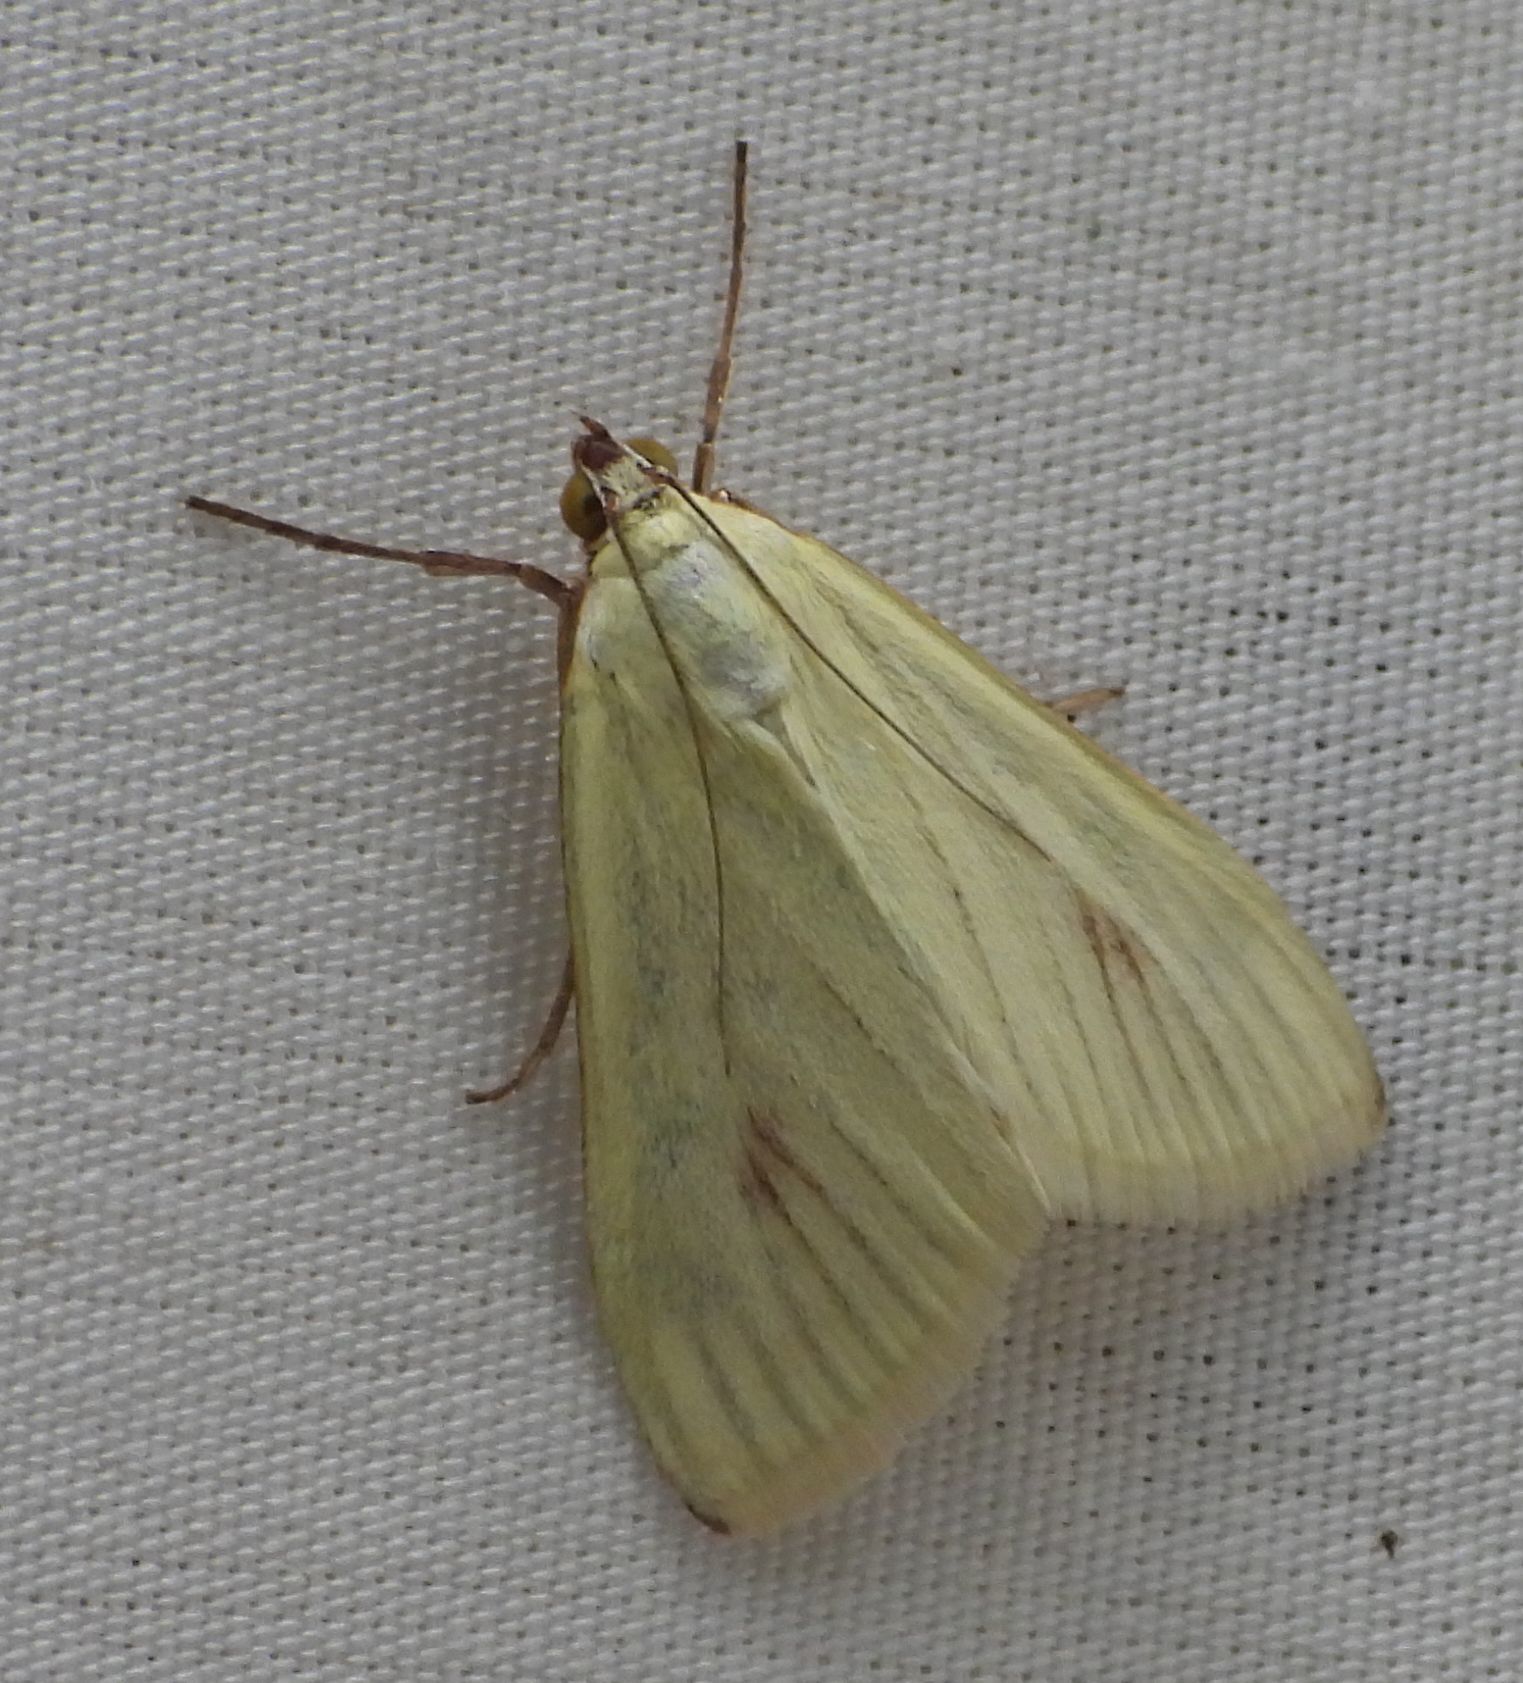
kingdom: Animalia
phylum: Arthropoda
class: Insecta
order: Lepidoptera
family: Crambidae
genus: Sitochroa
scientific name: Sitochroa palealis
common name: Greenish-yellow sitochroa moth
